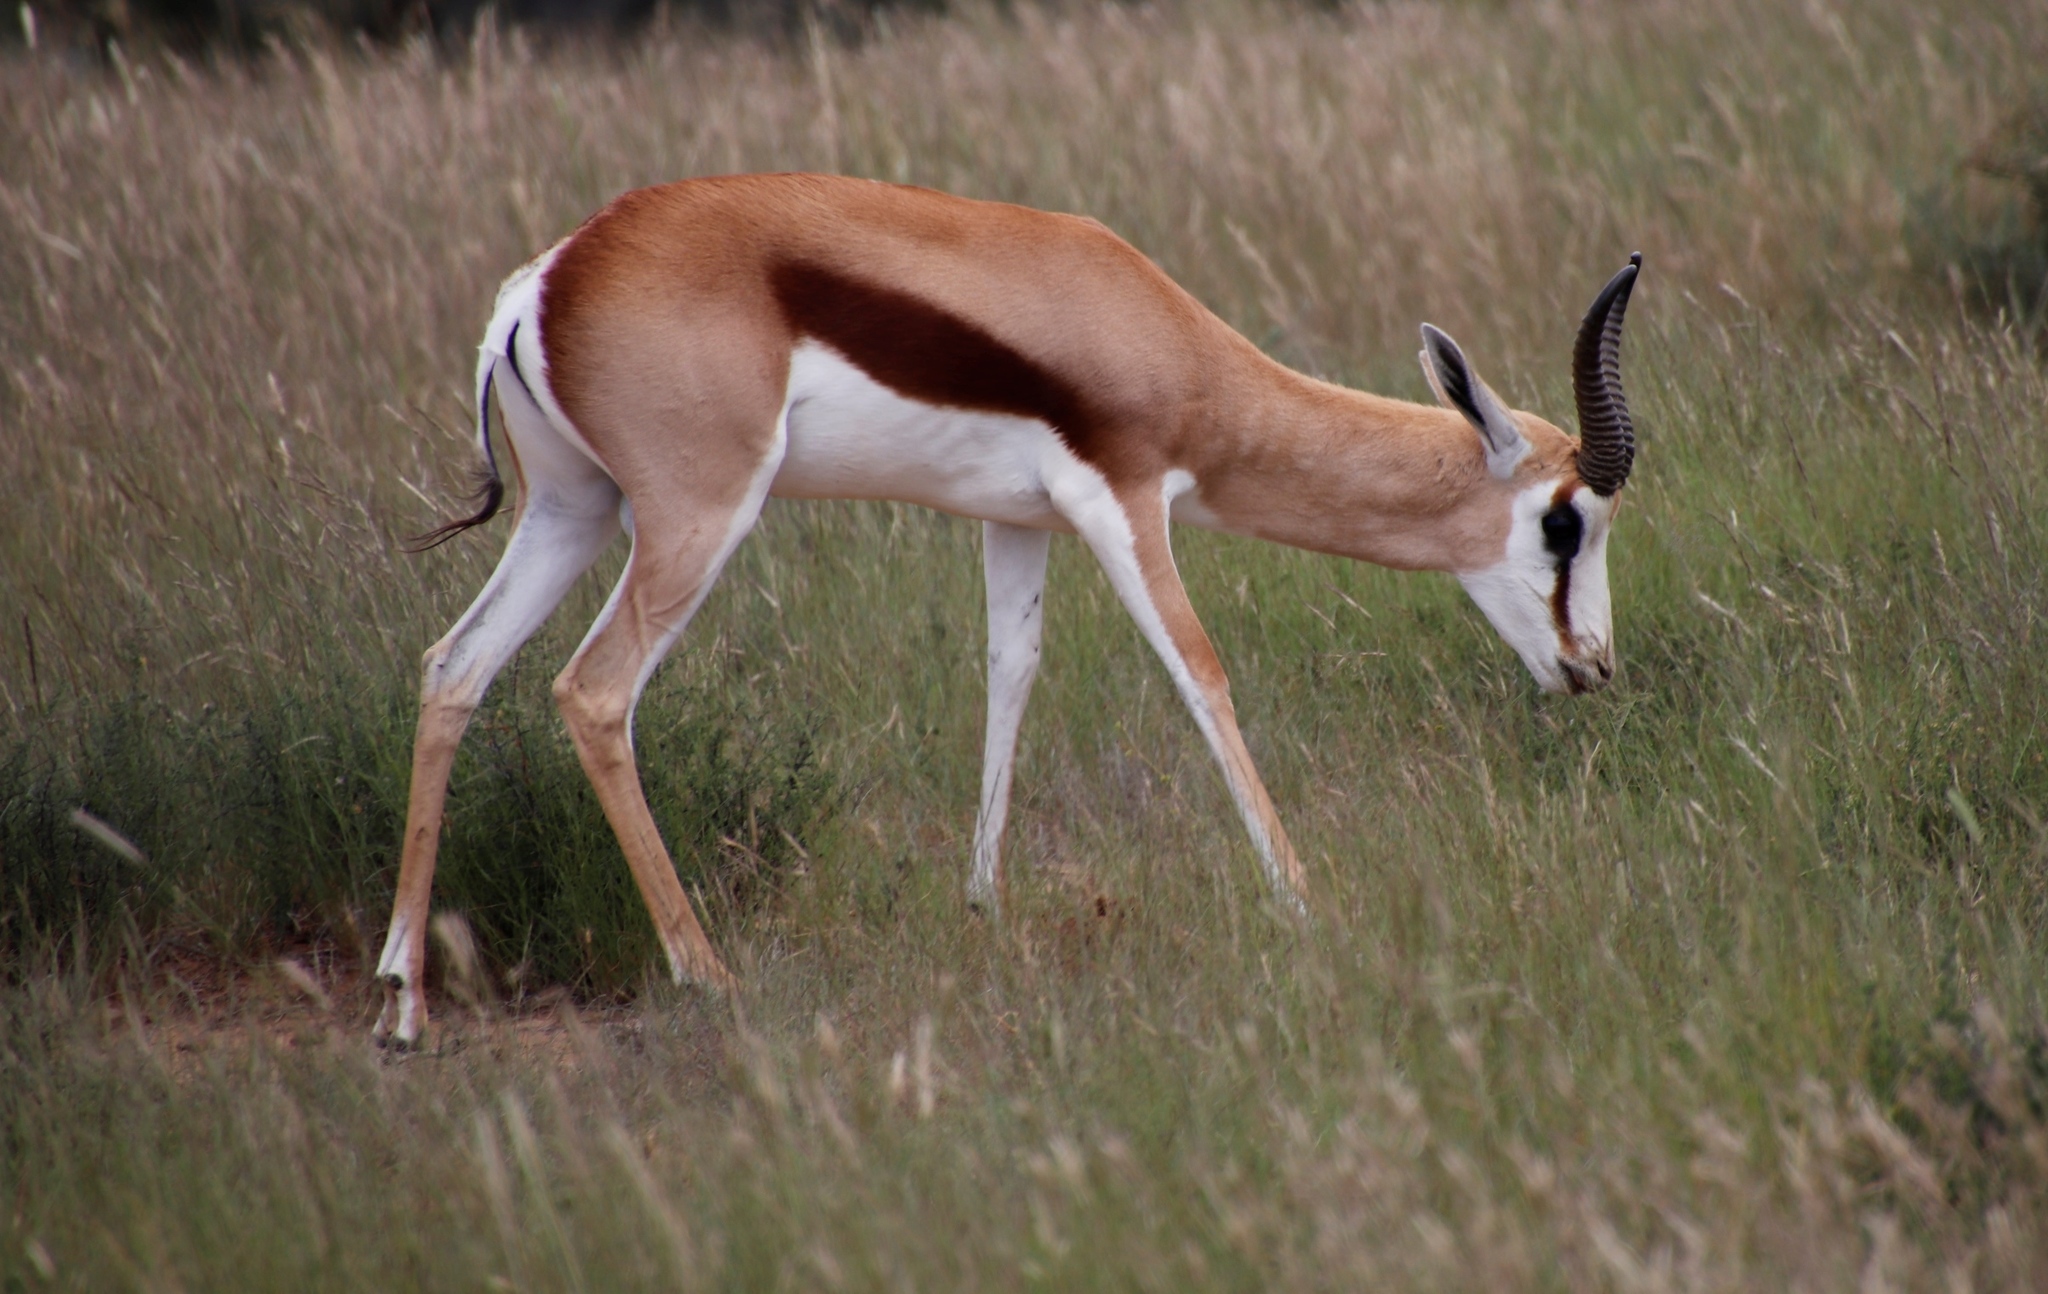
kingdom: Animalia
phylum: Chordata
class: Mammalia
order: Artiodactyla
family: Bovidae
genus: Antidorcas
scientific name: Antidorcas marsupialis
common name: Springbok
